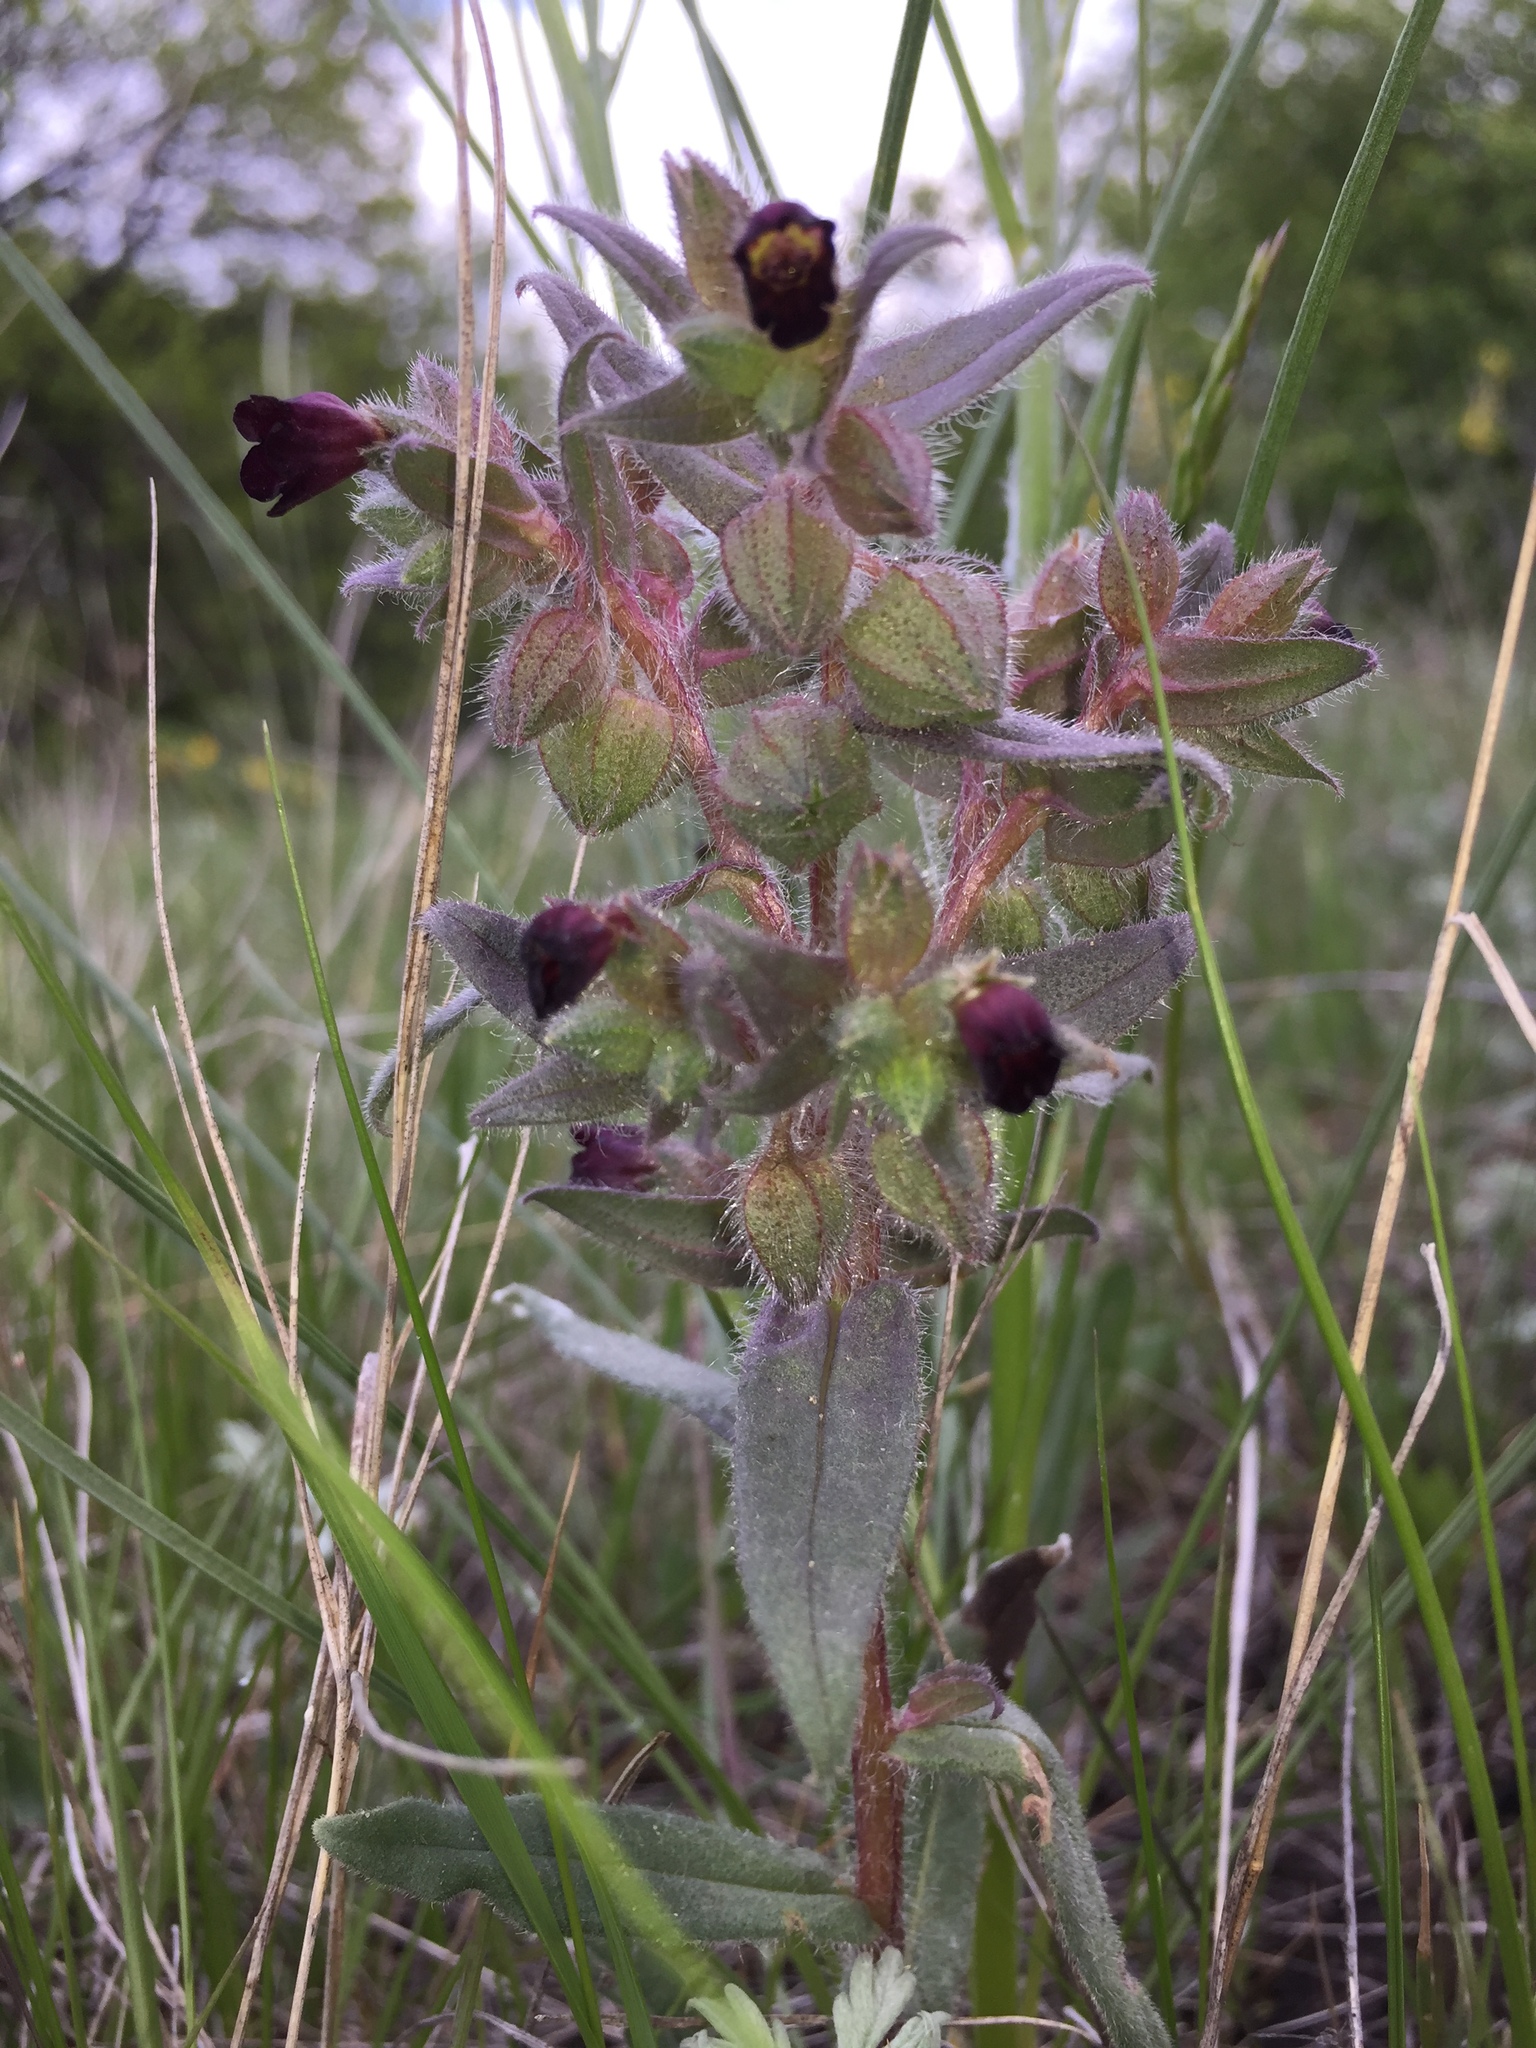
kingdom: Plantae
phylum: Tracheophyta
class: Magnoliopsida
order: Boraginales
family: Boraginaceae
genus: Nonea
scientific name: Nonea pulla
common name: Brown nonea
